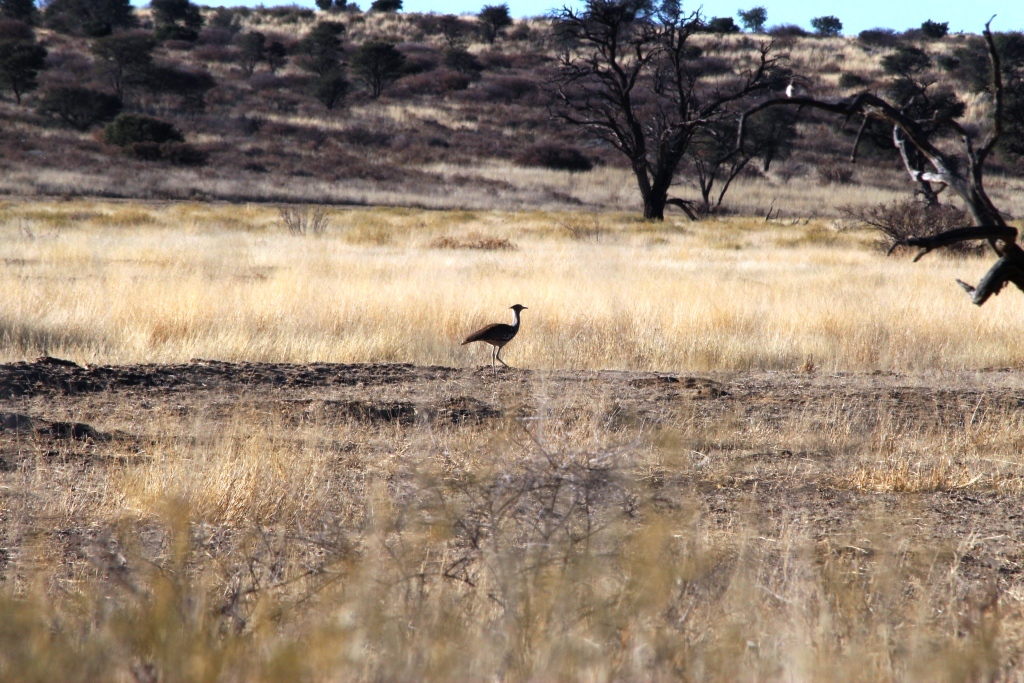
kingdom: Animalia
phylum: Chordata
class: Aves
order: Otidiformes
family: Otididae
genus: Ardeotis
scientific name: Ardeotis kori
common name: Kori bustard
